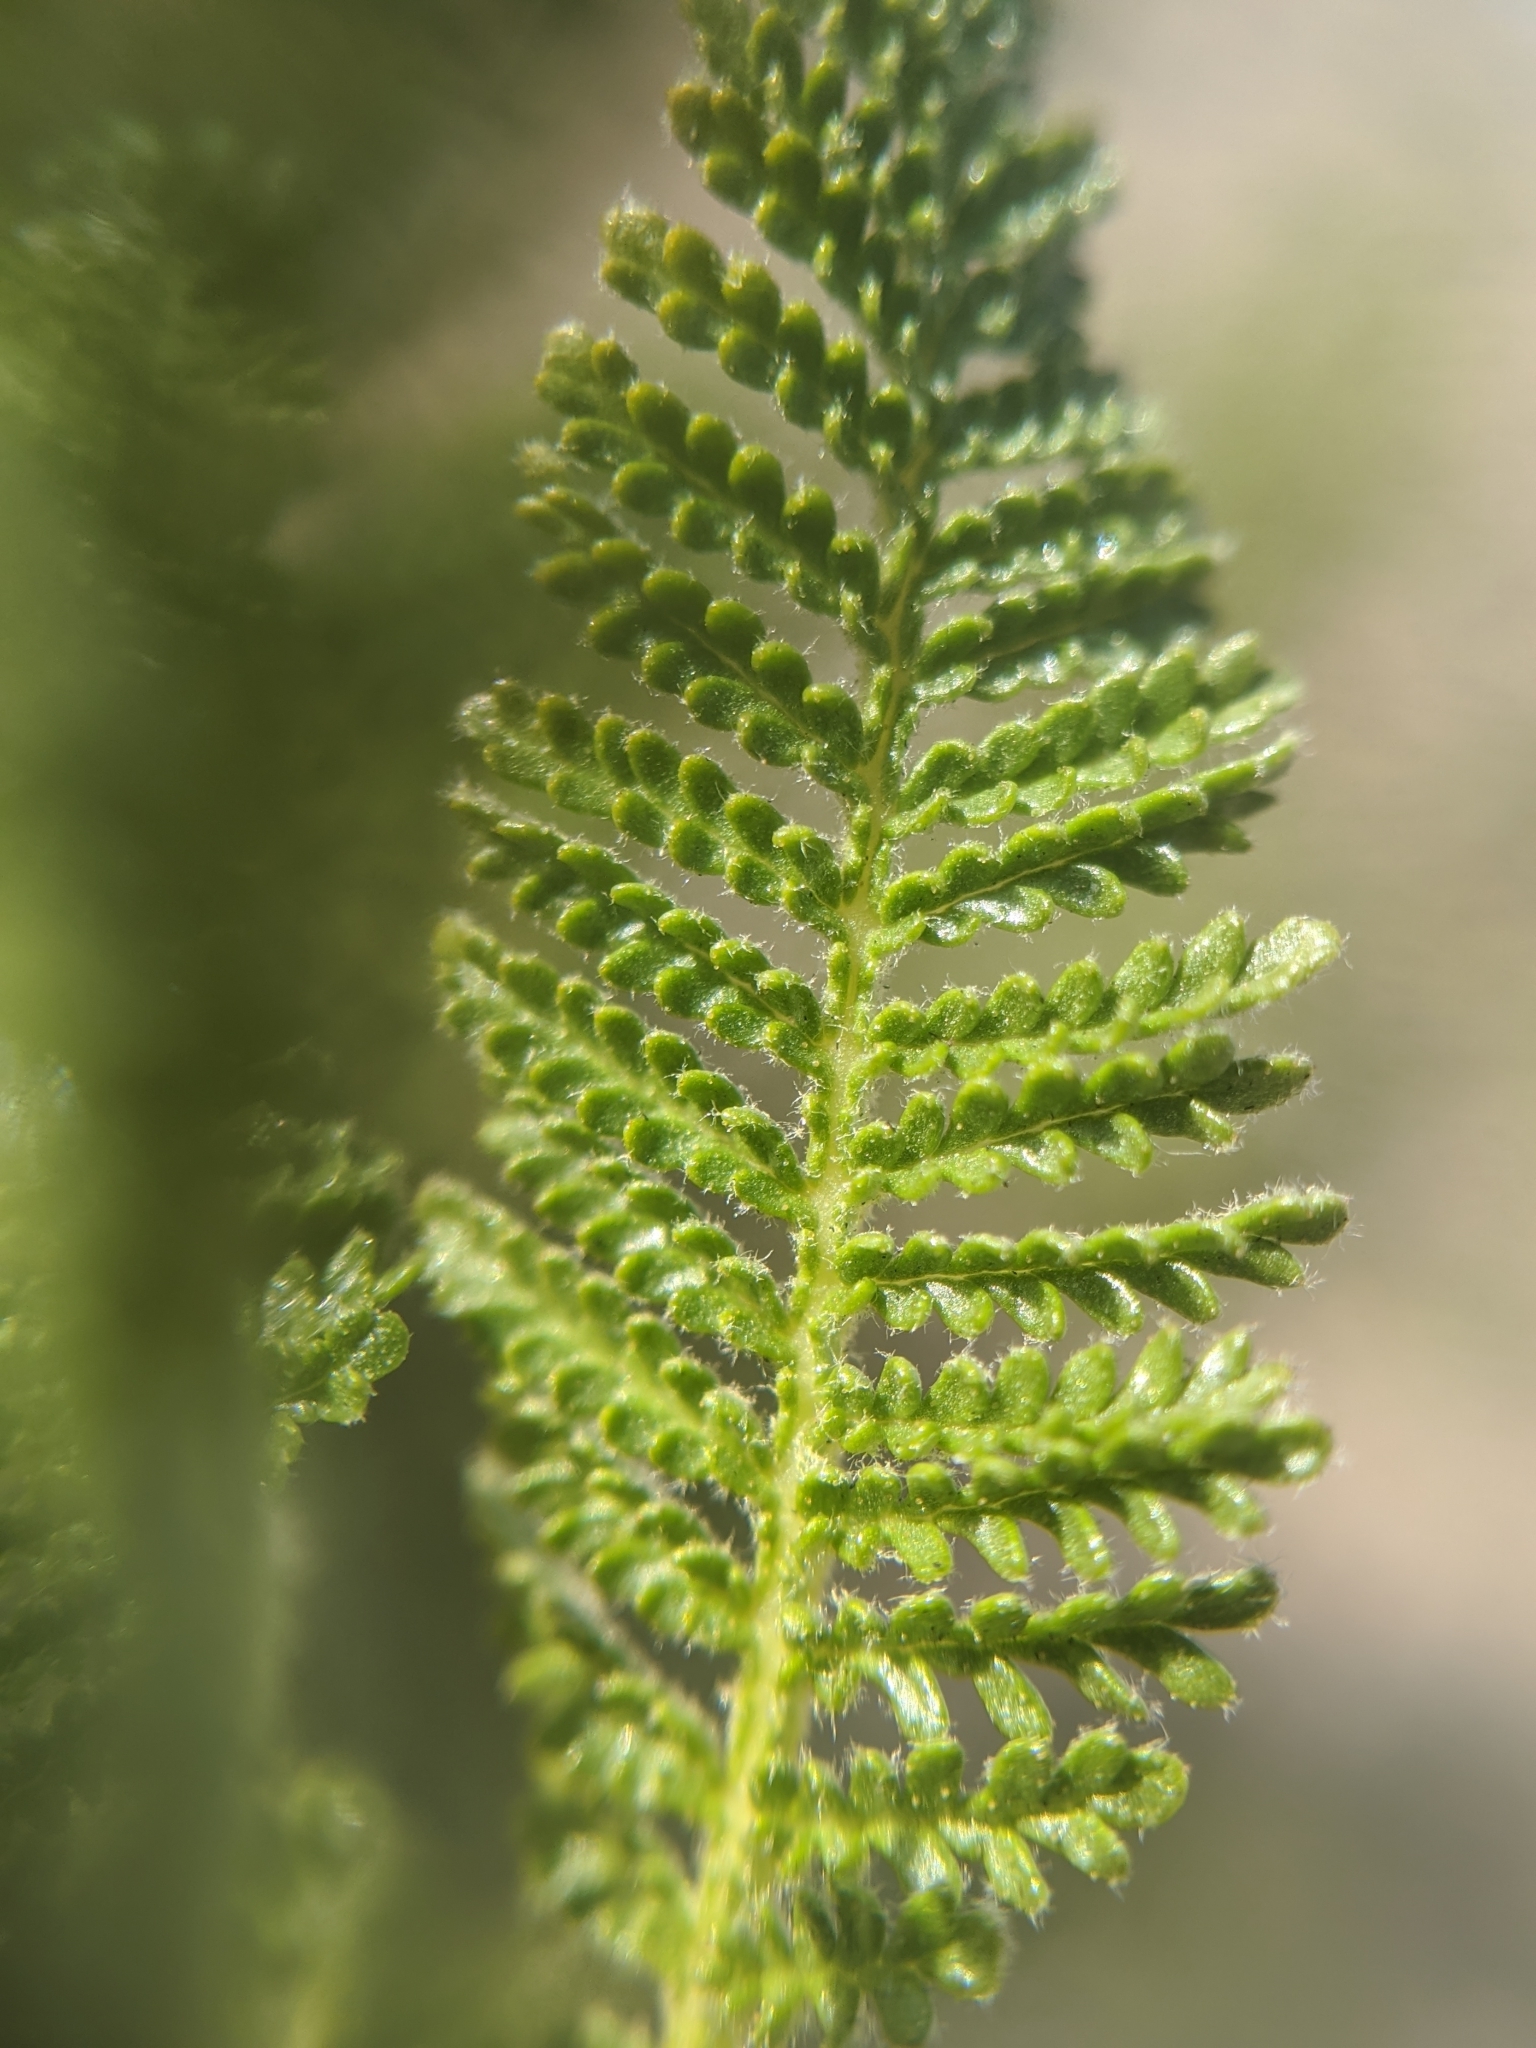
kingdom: Plantae
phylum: Tracheophyta
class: Magnoliopsida
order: Rosales
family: Rosaceae
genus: Chamaebatiaria
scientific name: Chamaebatiaria millefolium
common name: Fernbush
